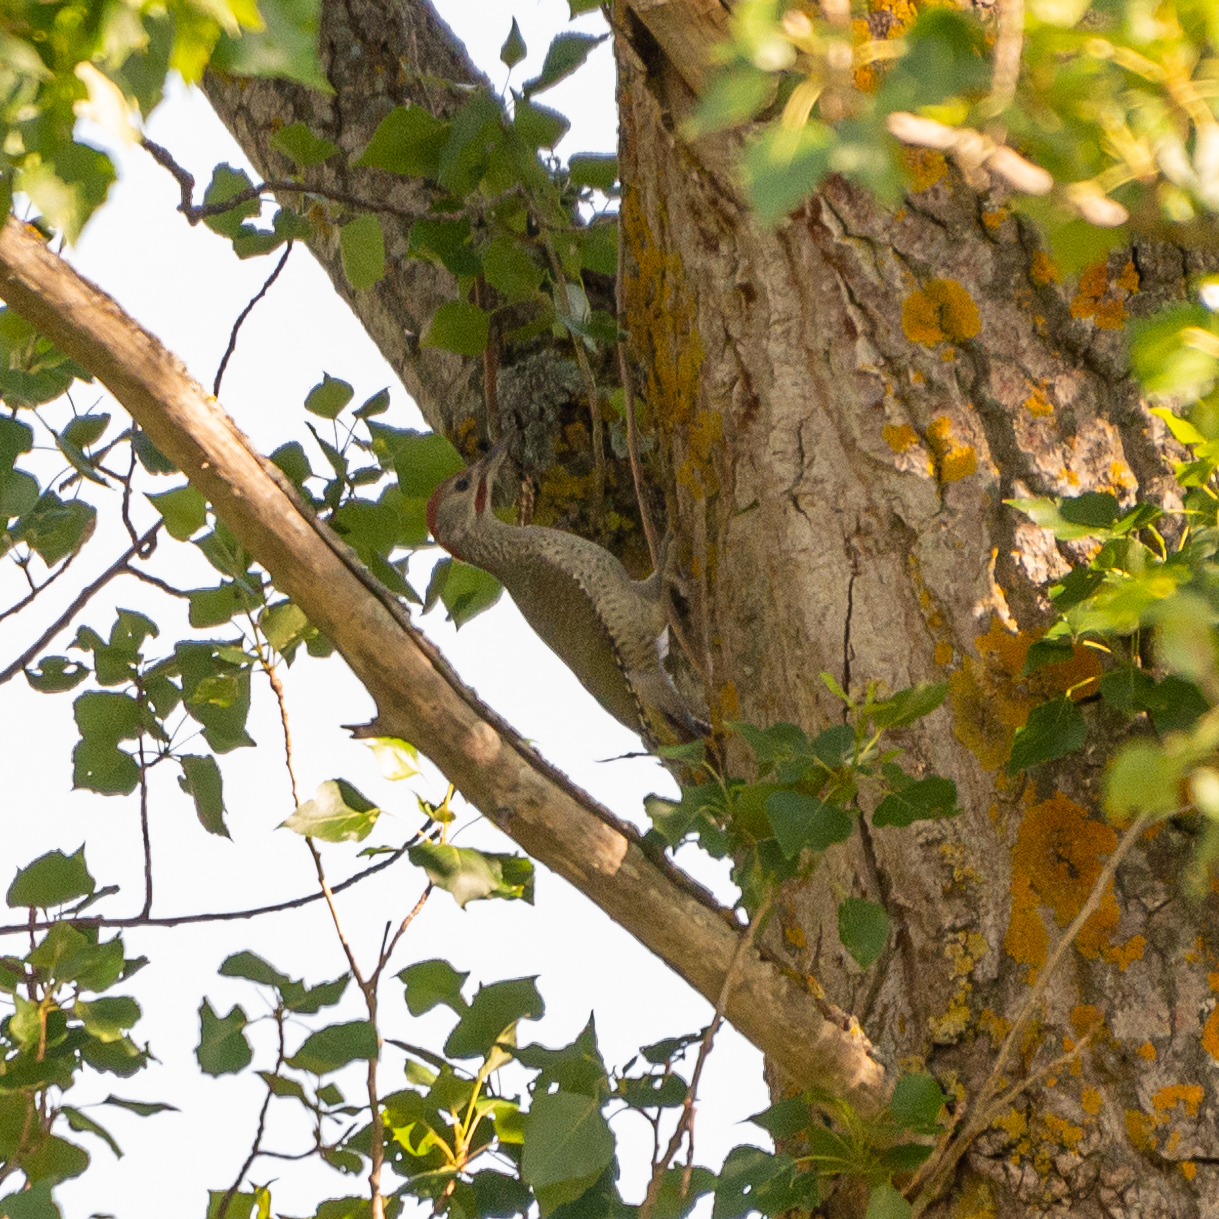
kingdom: Animalia
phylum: Chordata
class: Aves
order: Piciformes
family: Picidae
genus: Picus
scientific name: Picus sharpei
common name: Iberian green woodpecker
